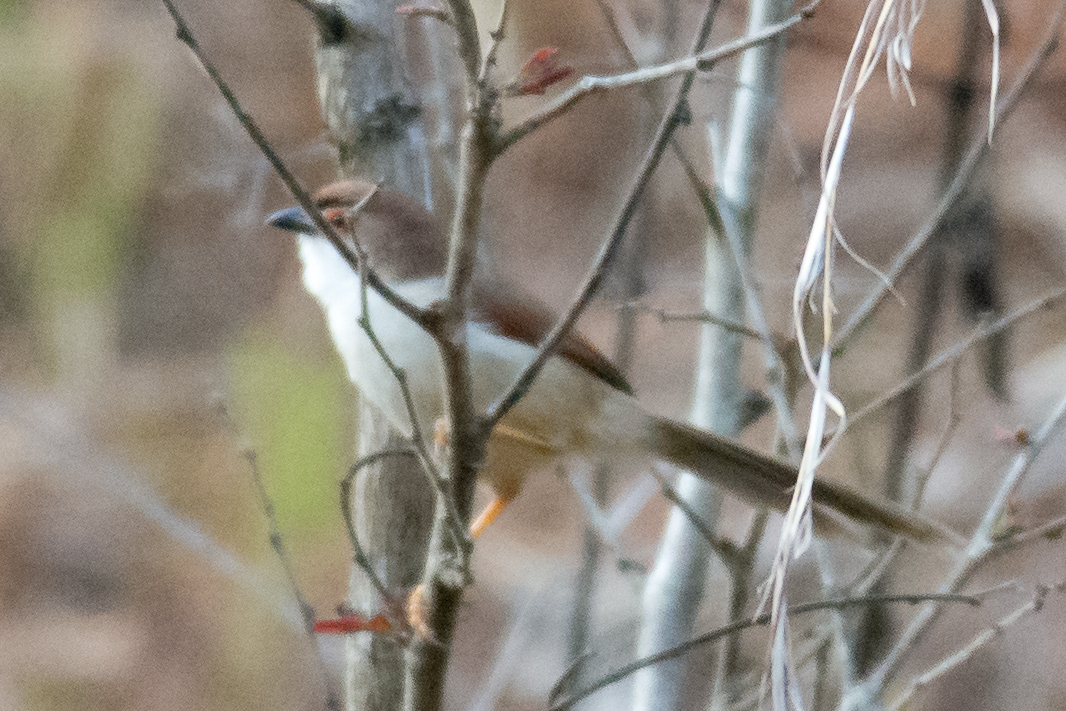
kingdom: Animalia
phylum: Chordata
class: Aves
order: Passeriformes
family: Sylviidae
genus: Chrysomma
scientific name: Chrysomma sinense
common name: Yellow-eyed babbler
